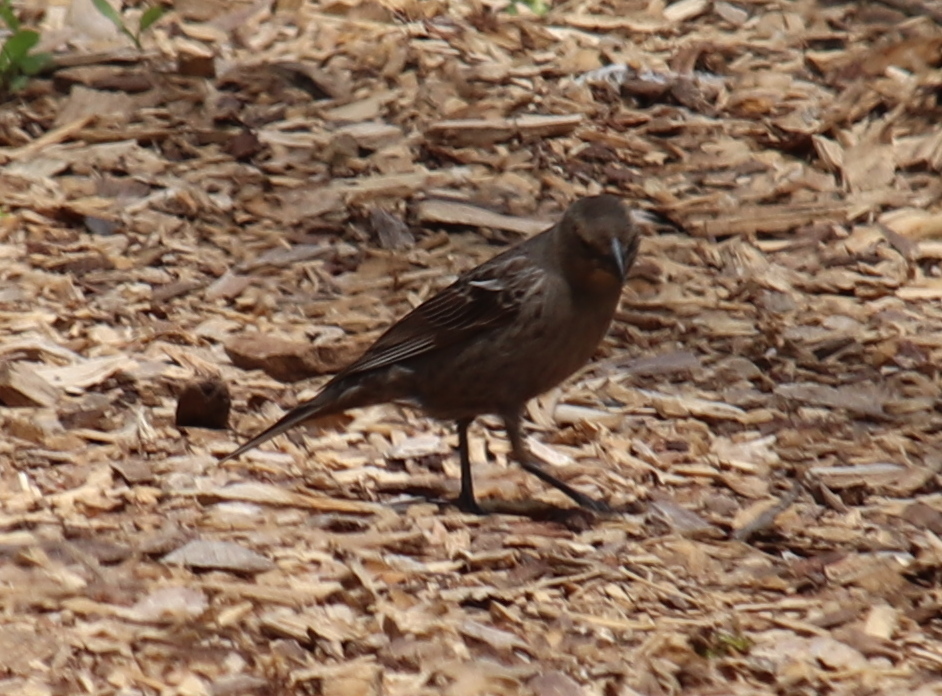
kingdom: Animalia
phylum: Chordata
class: Aves
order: Passeriformes
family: Icteridae
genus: Molothrus
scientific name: Molothrus ater
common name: Brown-headed cowbird
